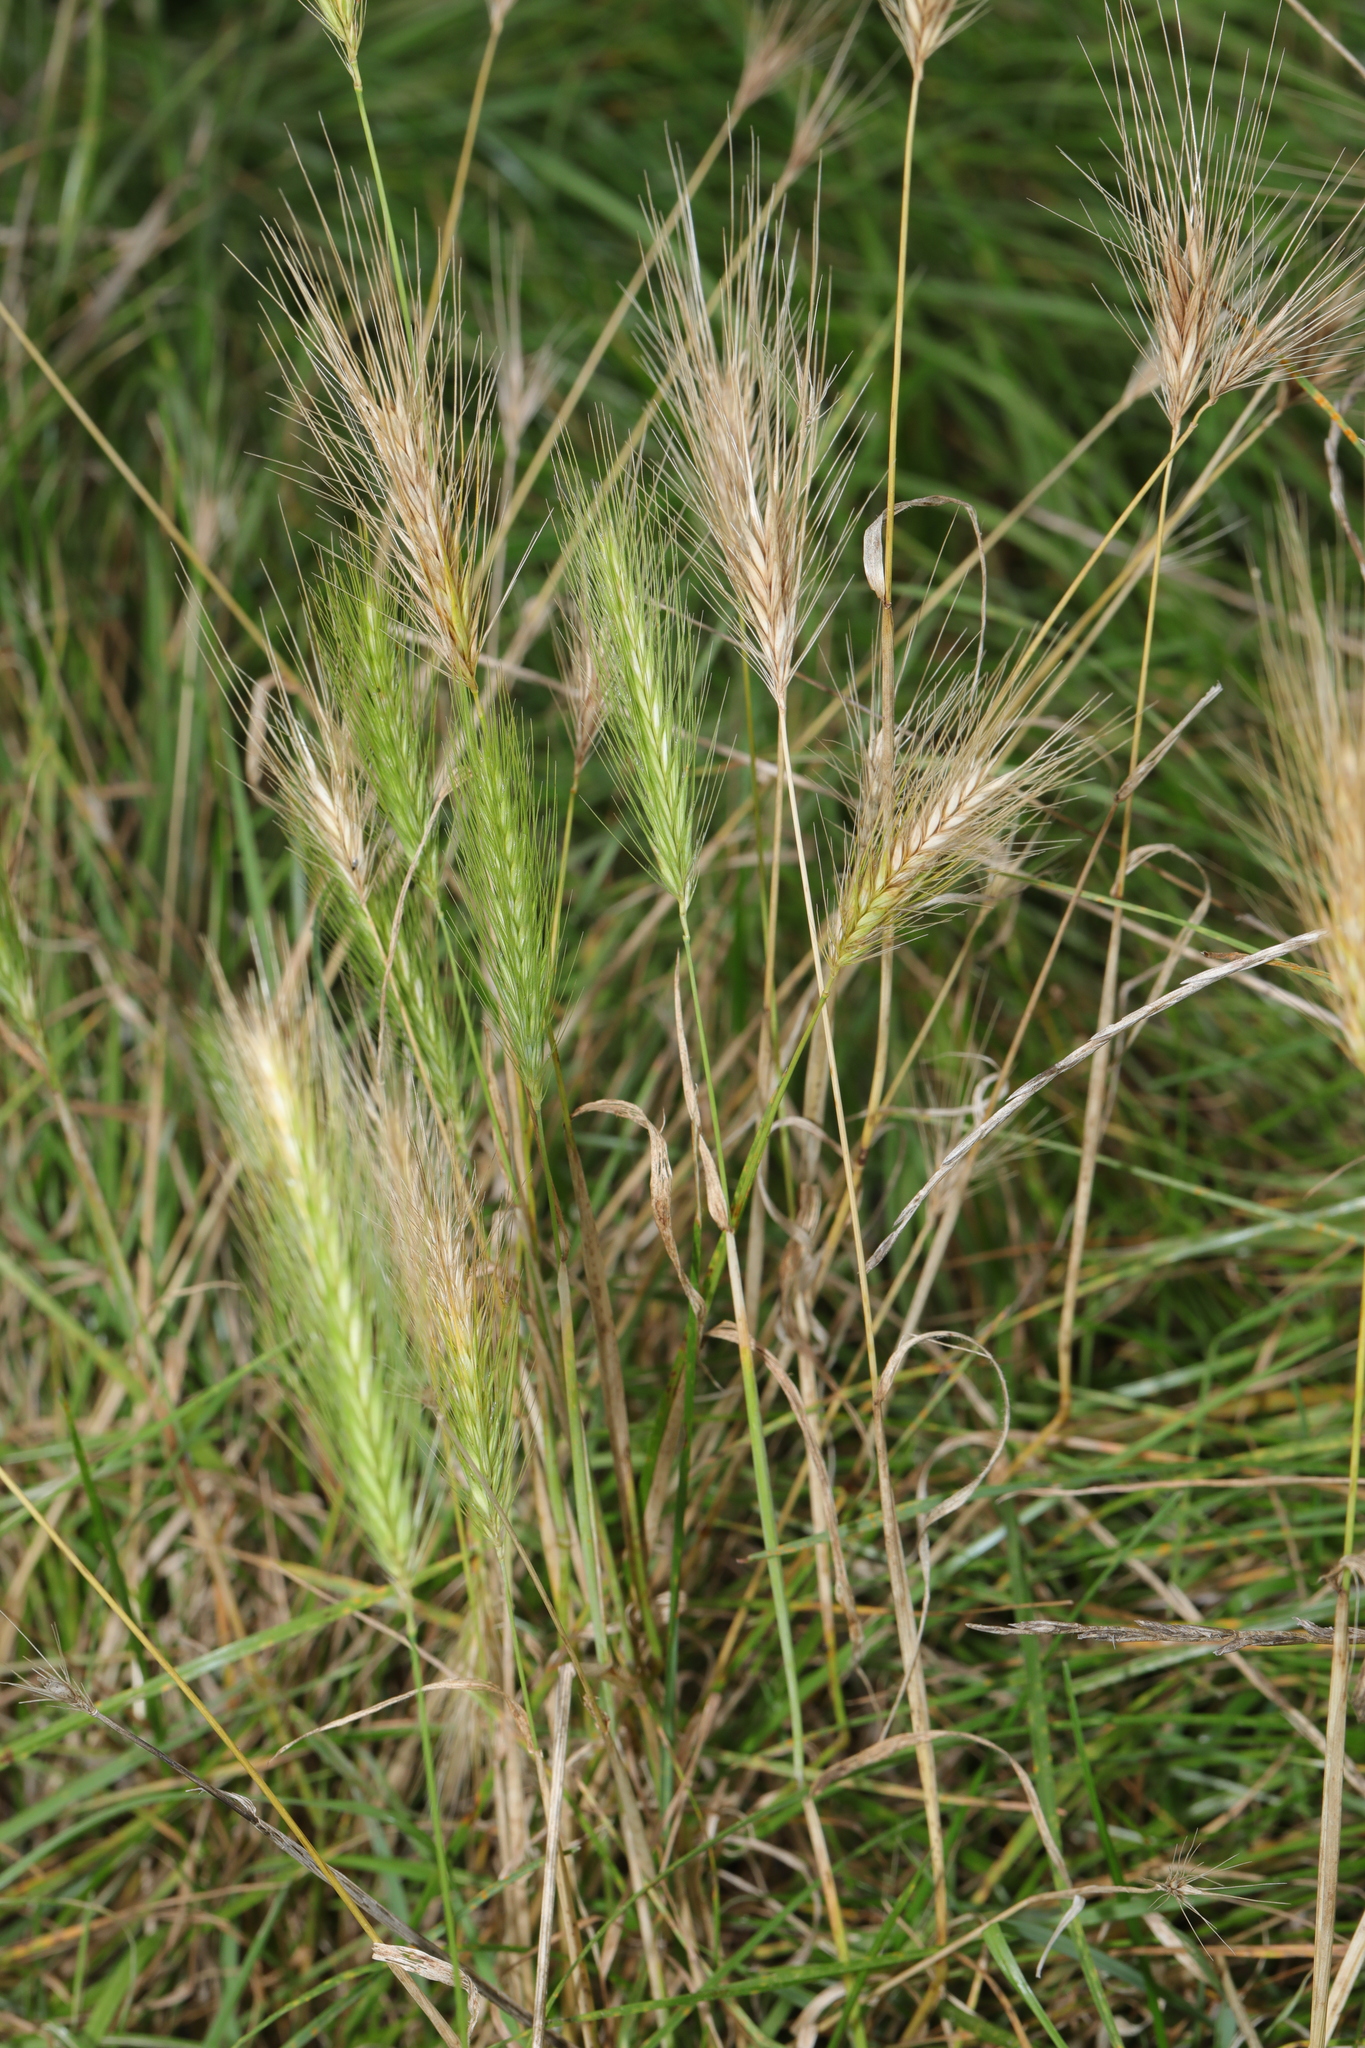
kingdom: Plantae
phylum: Tracheophyta
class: Liliopsida
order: Poales
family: Poaceae
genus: Hordeum
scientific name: Hordeum murinum
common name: Wall barley
